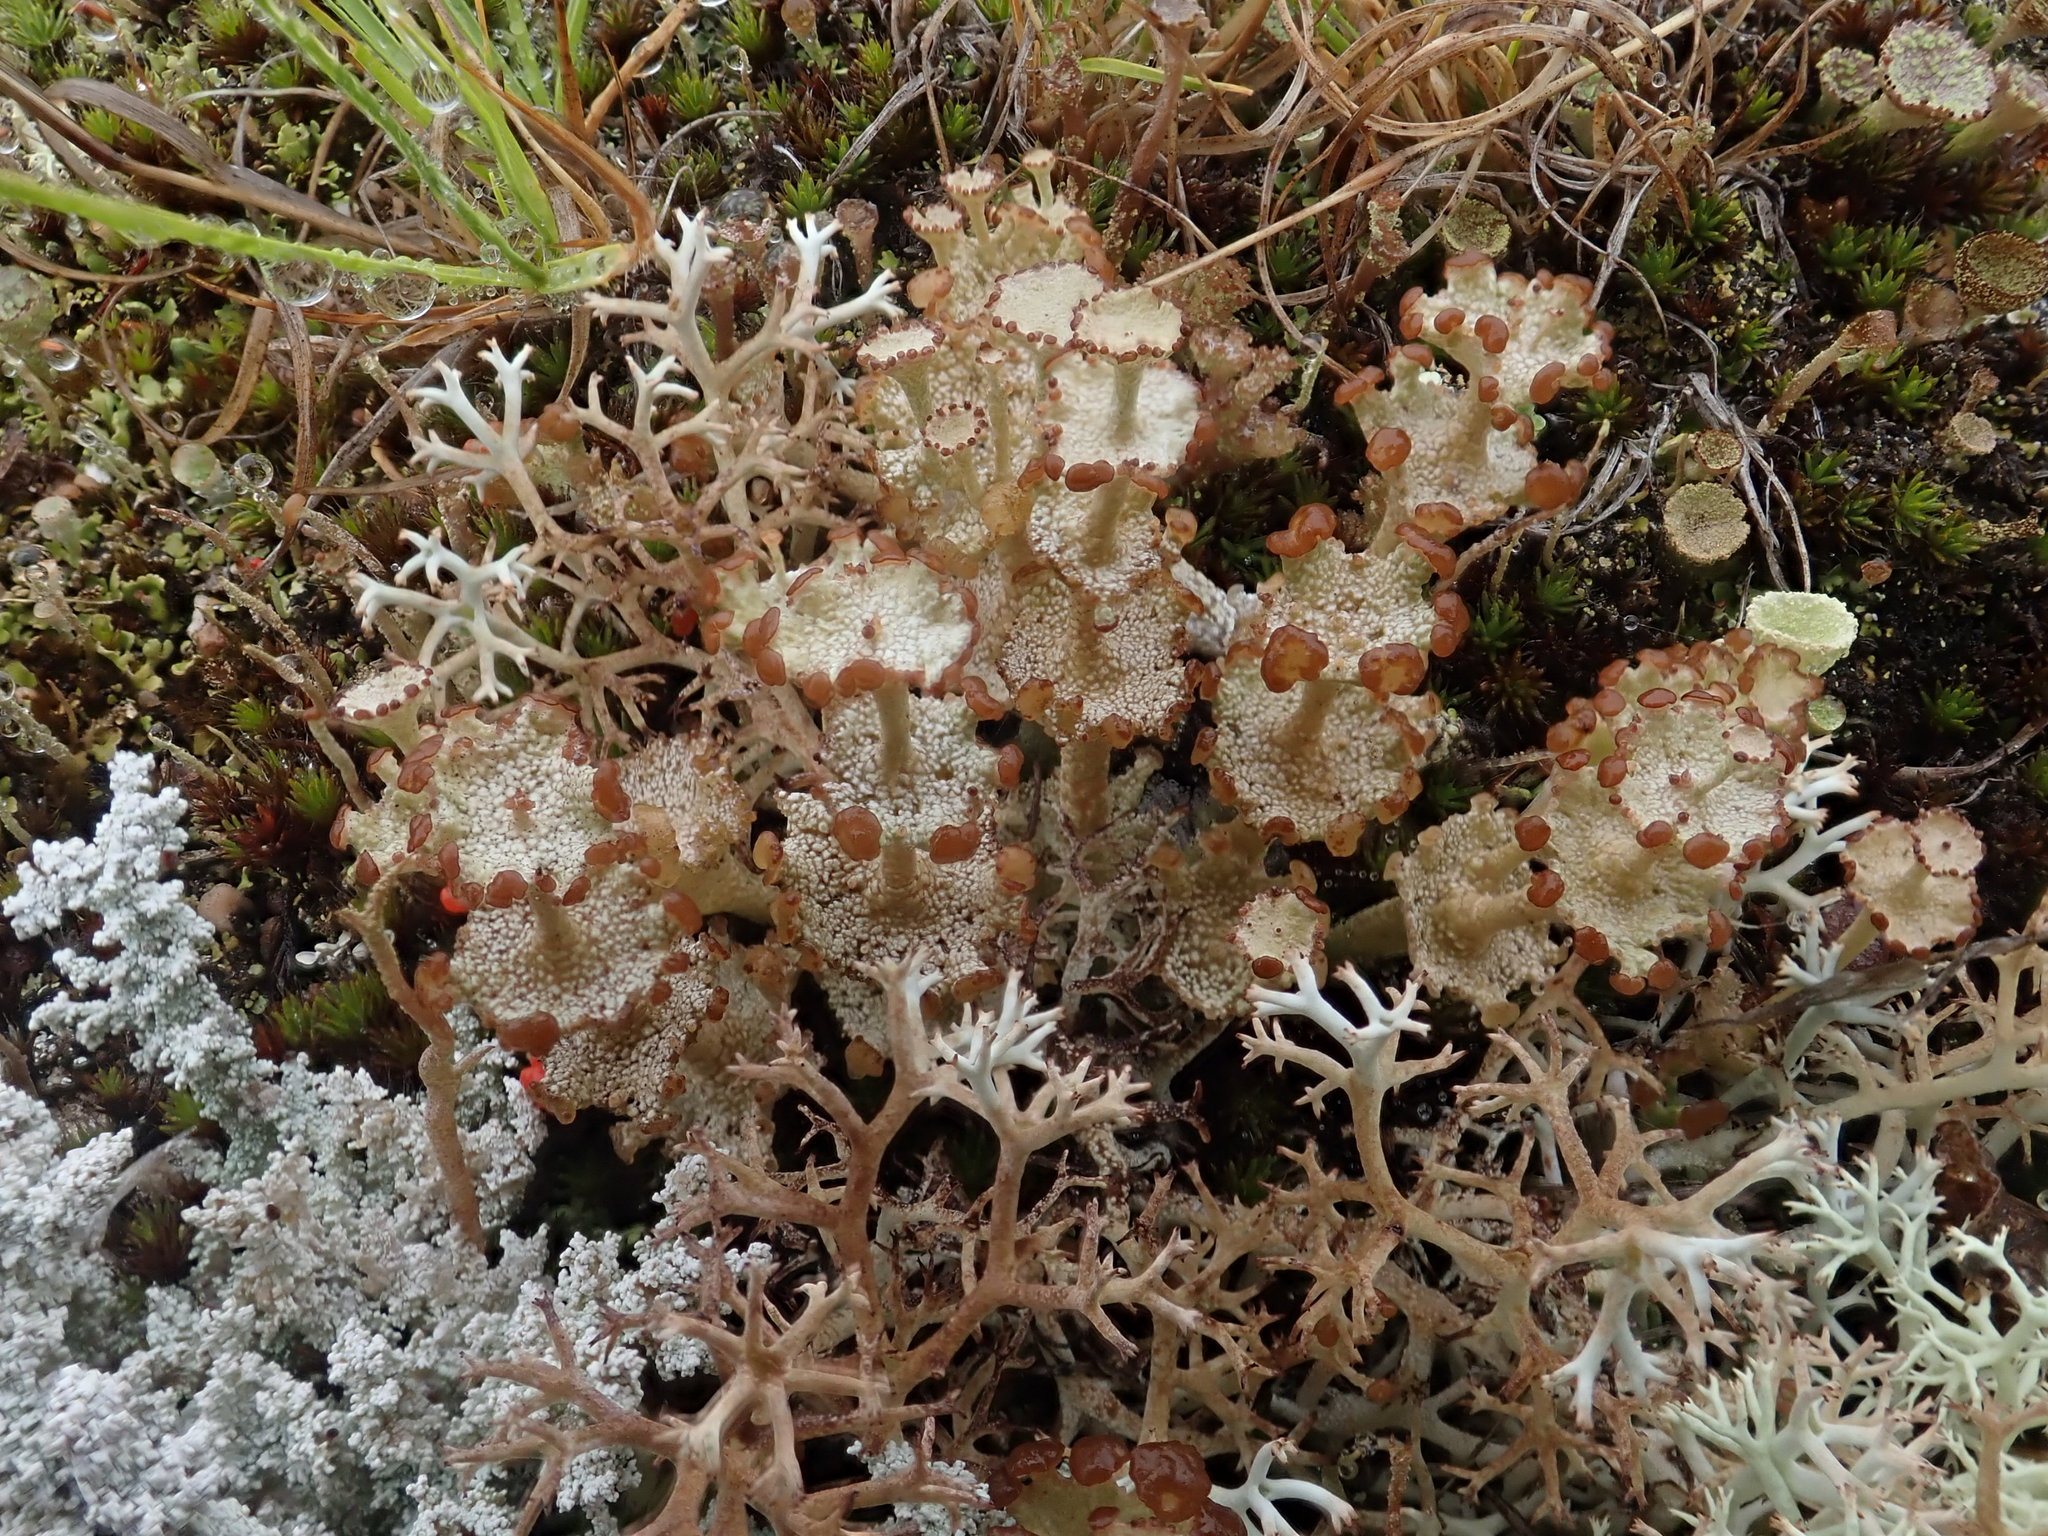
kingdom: Fungi
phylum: Ascomycota
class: Lecanoromycetes
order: Lecanorales
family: Cladoniaceae
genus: Cladonia
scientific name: Cladonia cervicornis
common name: Browned pixie-cup lichen
